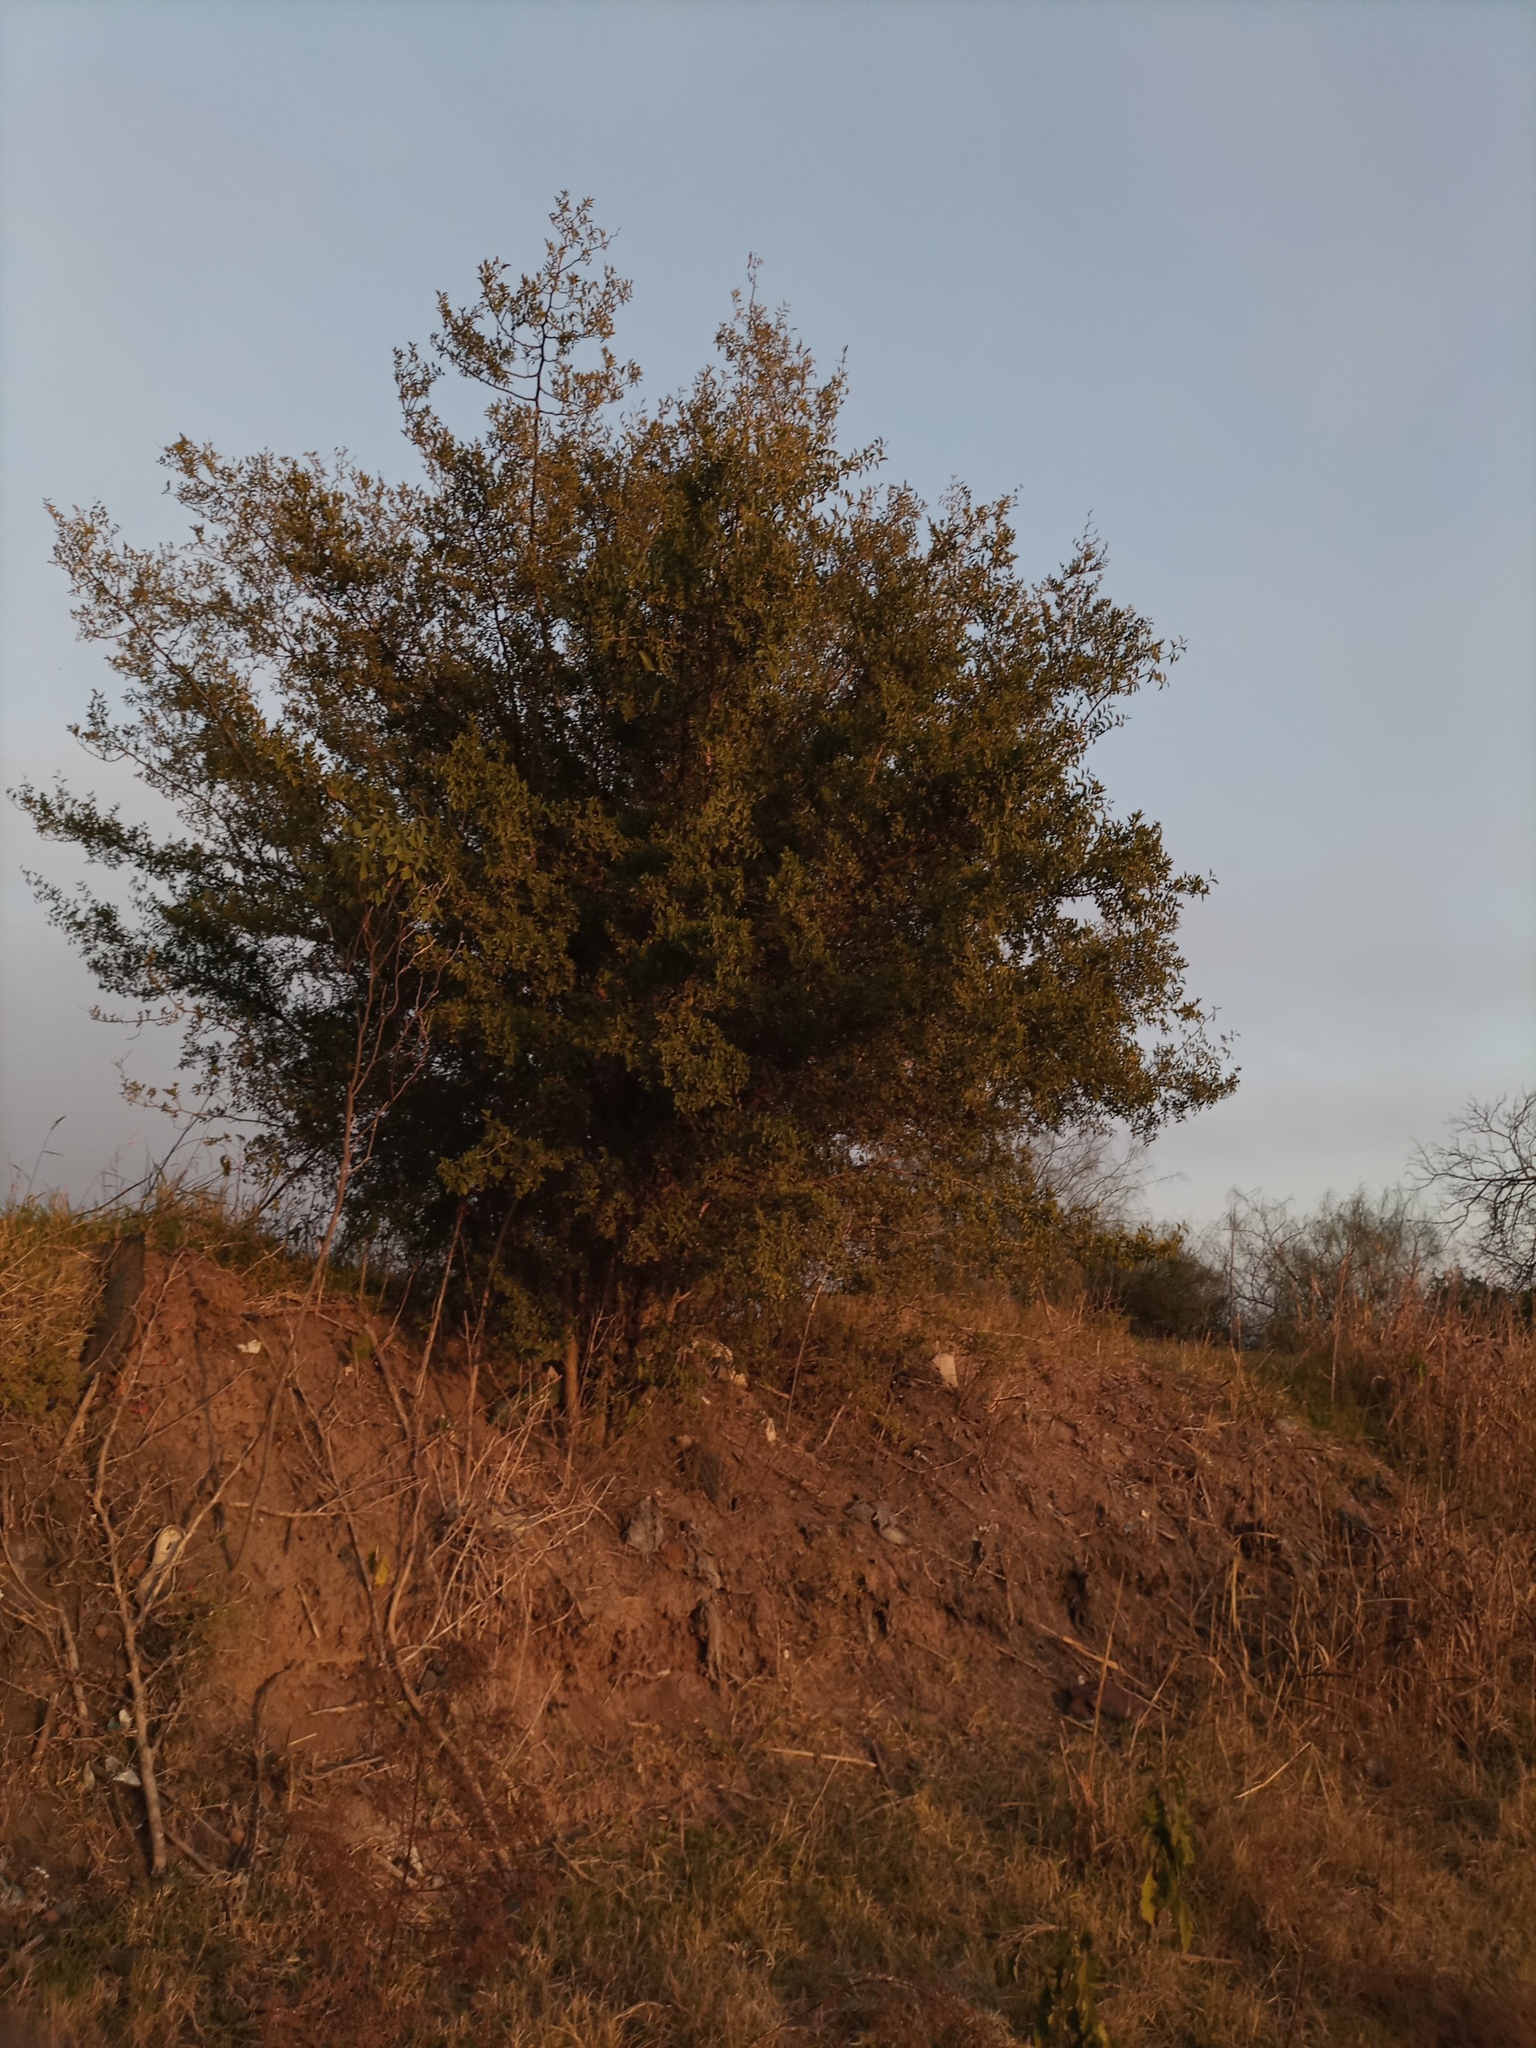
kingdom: Plantae
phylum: Tracheophyta
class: Magnoliopsida
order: Rosales
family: Cannabaceae
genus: Celtis
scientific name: Celtis tala
